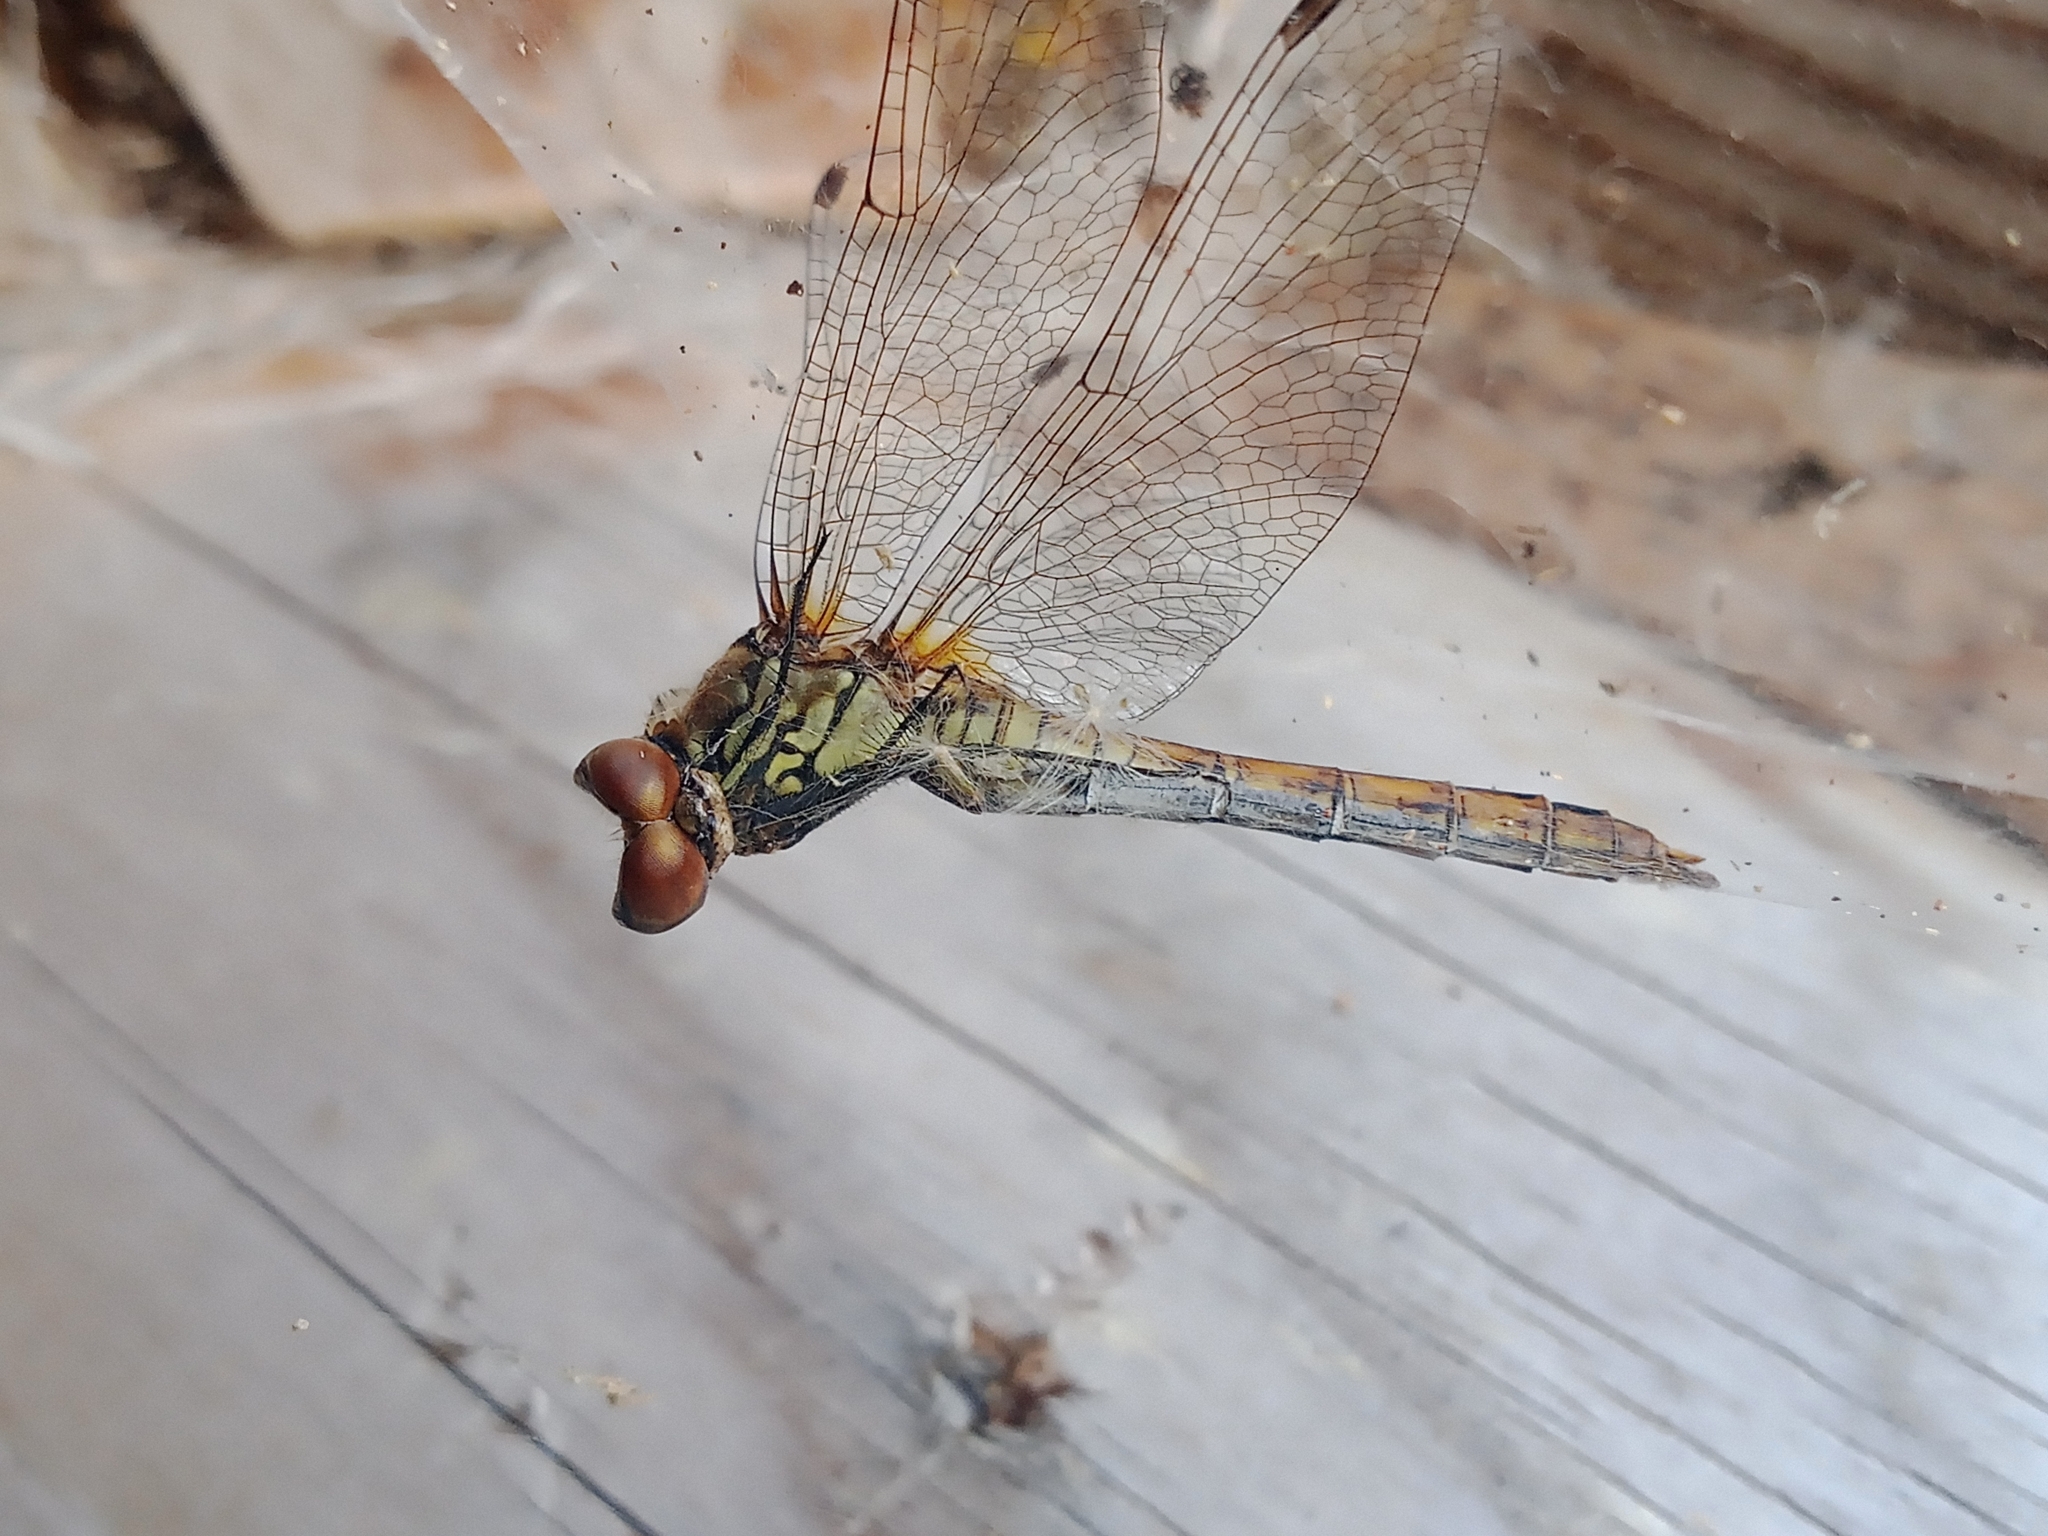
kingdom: Animalia
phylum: Arthropoda
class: Insecta
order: Odonata
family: Libellulidae
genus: Sympetrum
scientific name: Sympetrum sanguineum
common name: Ruddy darter
